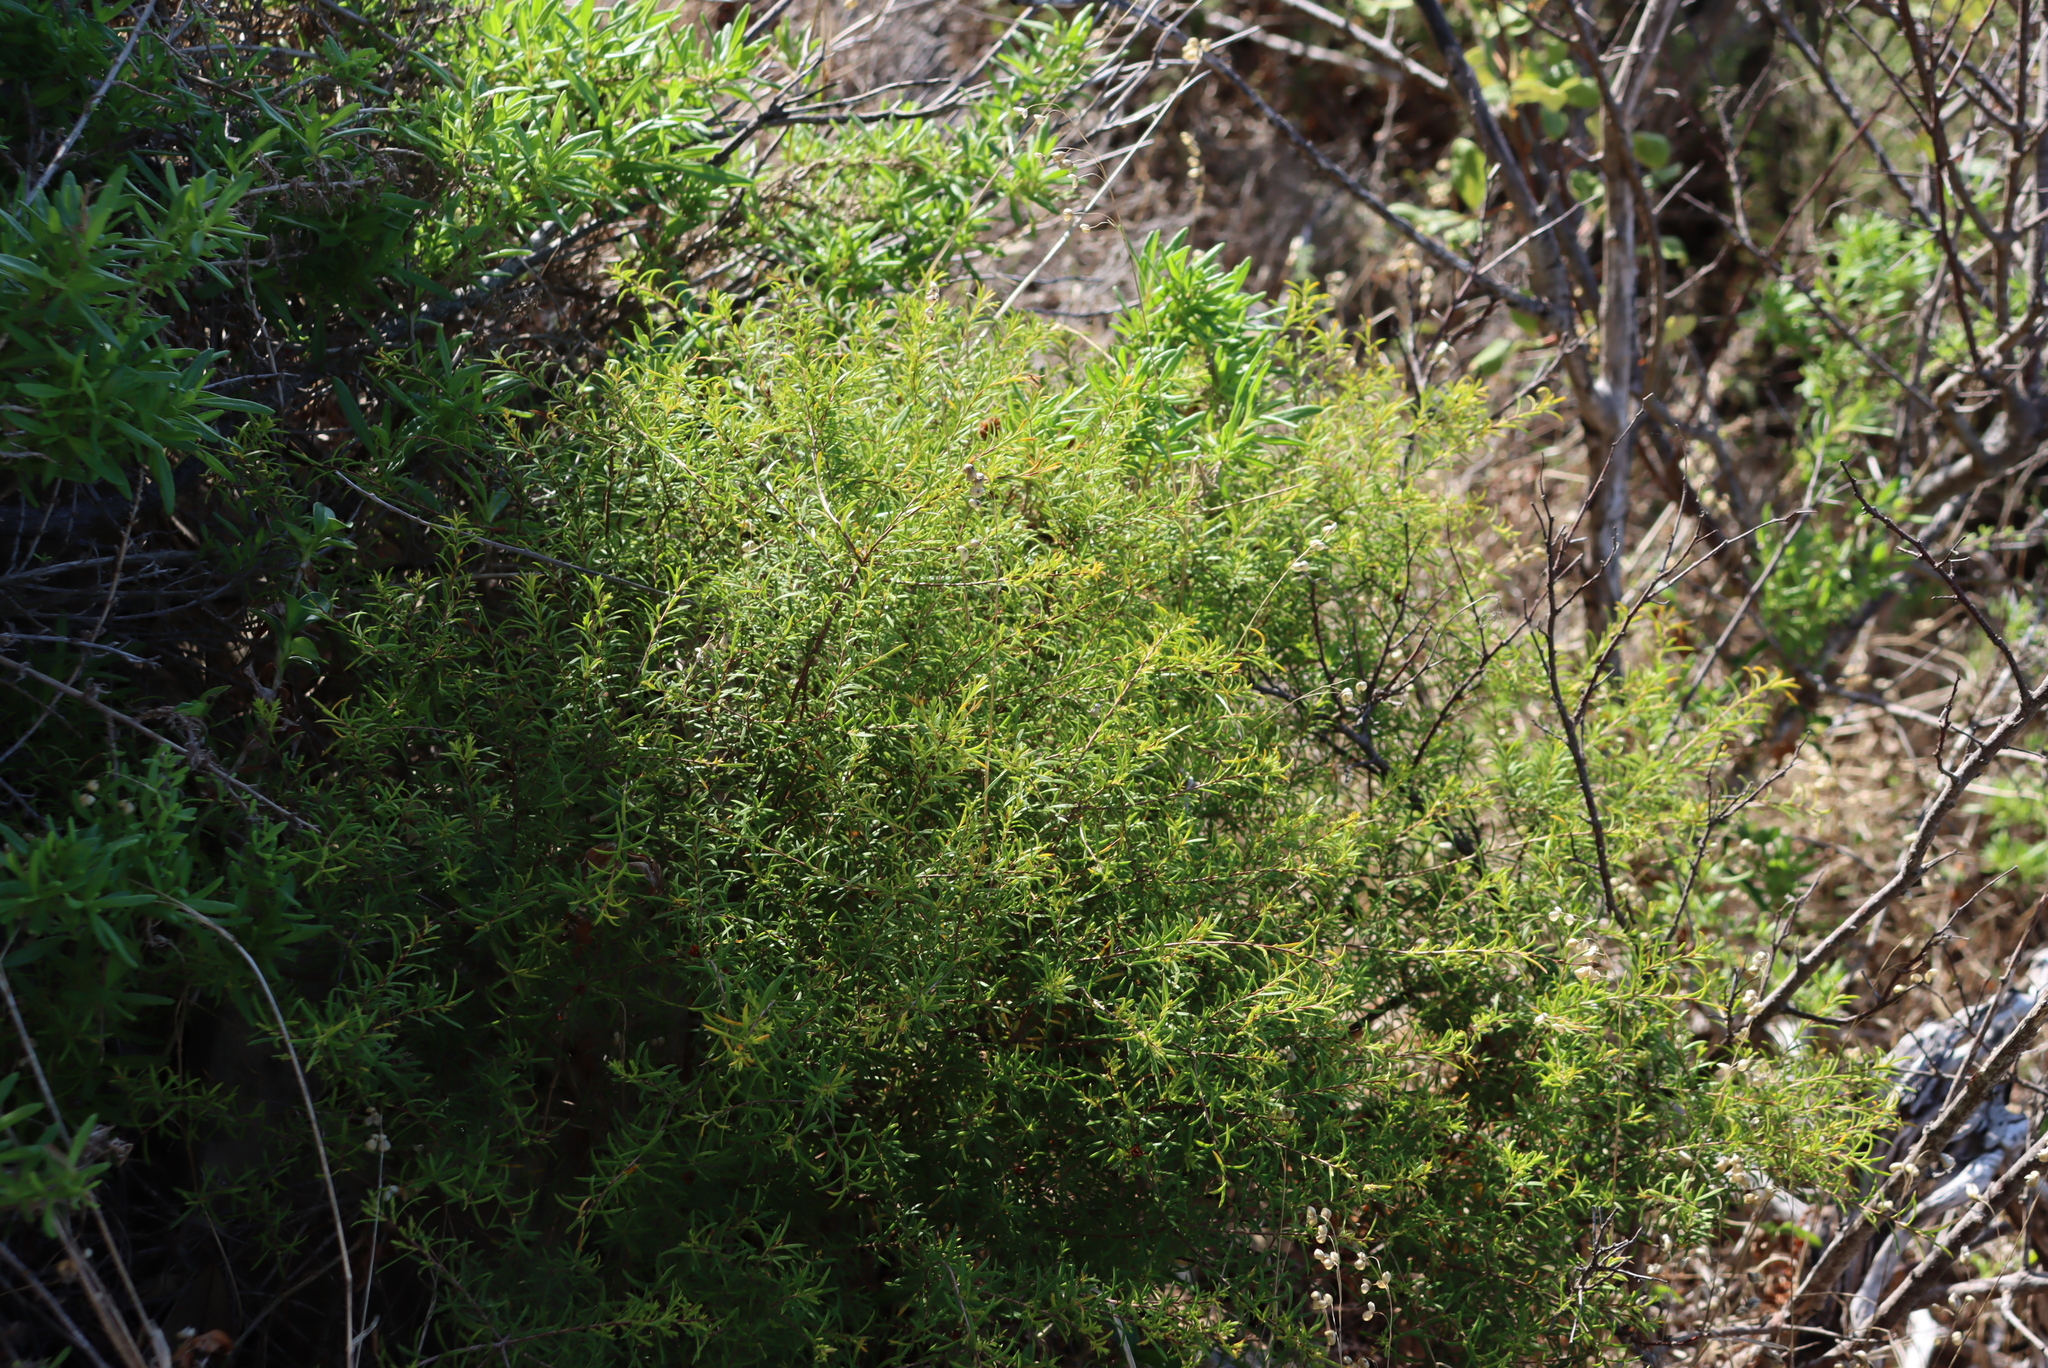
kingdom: Plantae
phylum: Tracheophyta
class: Magnoliopsida
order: Sapindales
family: Rutaceae
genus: Coleonema
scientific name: Coleonema album
